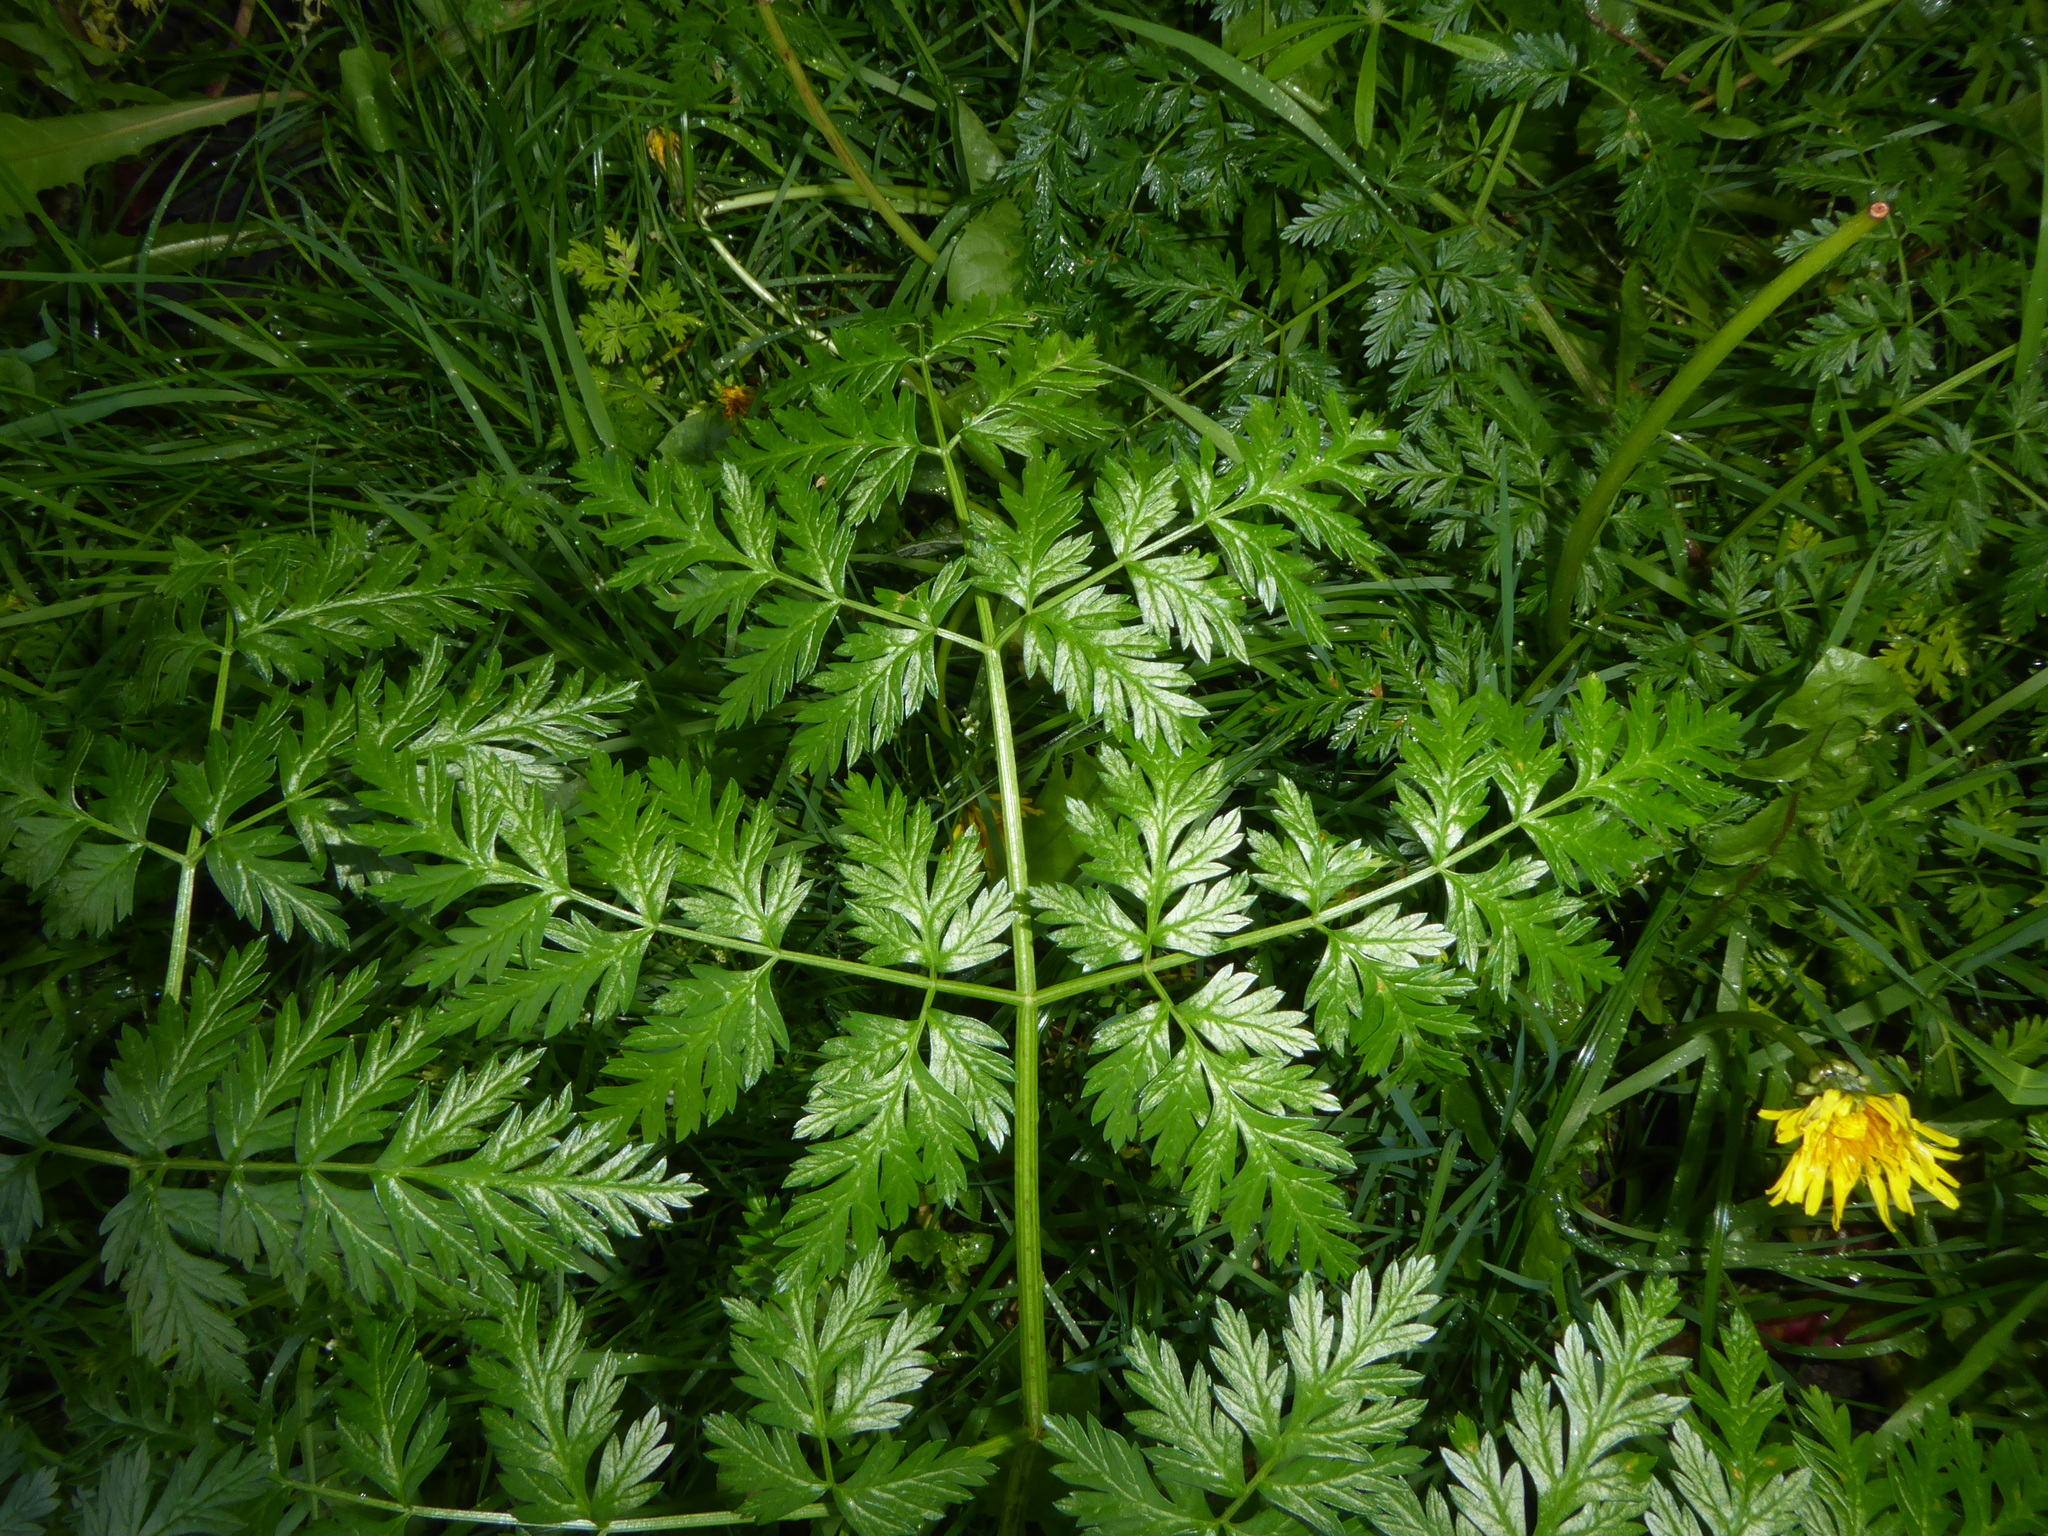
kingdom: Plantae
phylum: Tracheophyta
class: Magnoliopsida
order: Apiales
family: Apiaceae
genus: Conium
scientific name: Conium maculatum
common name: Hemlock
